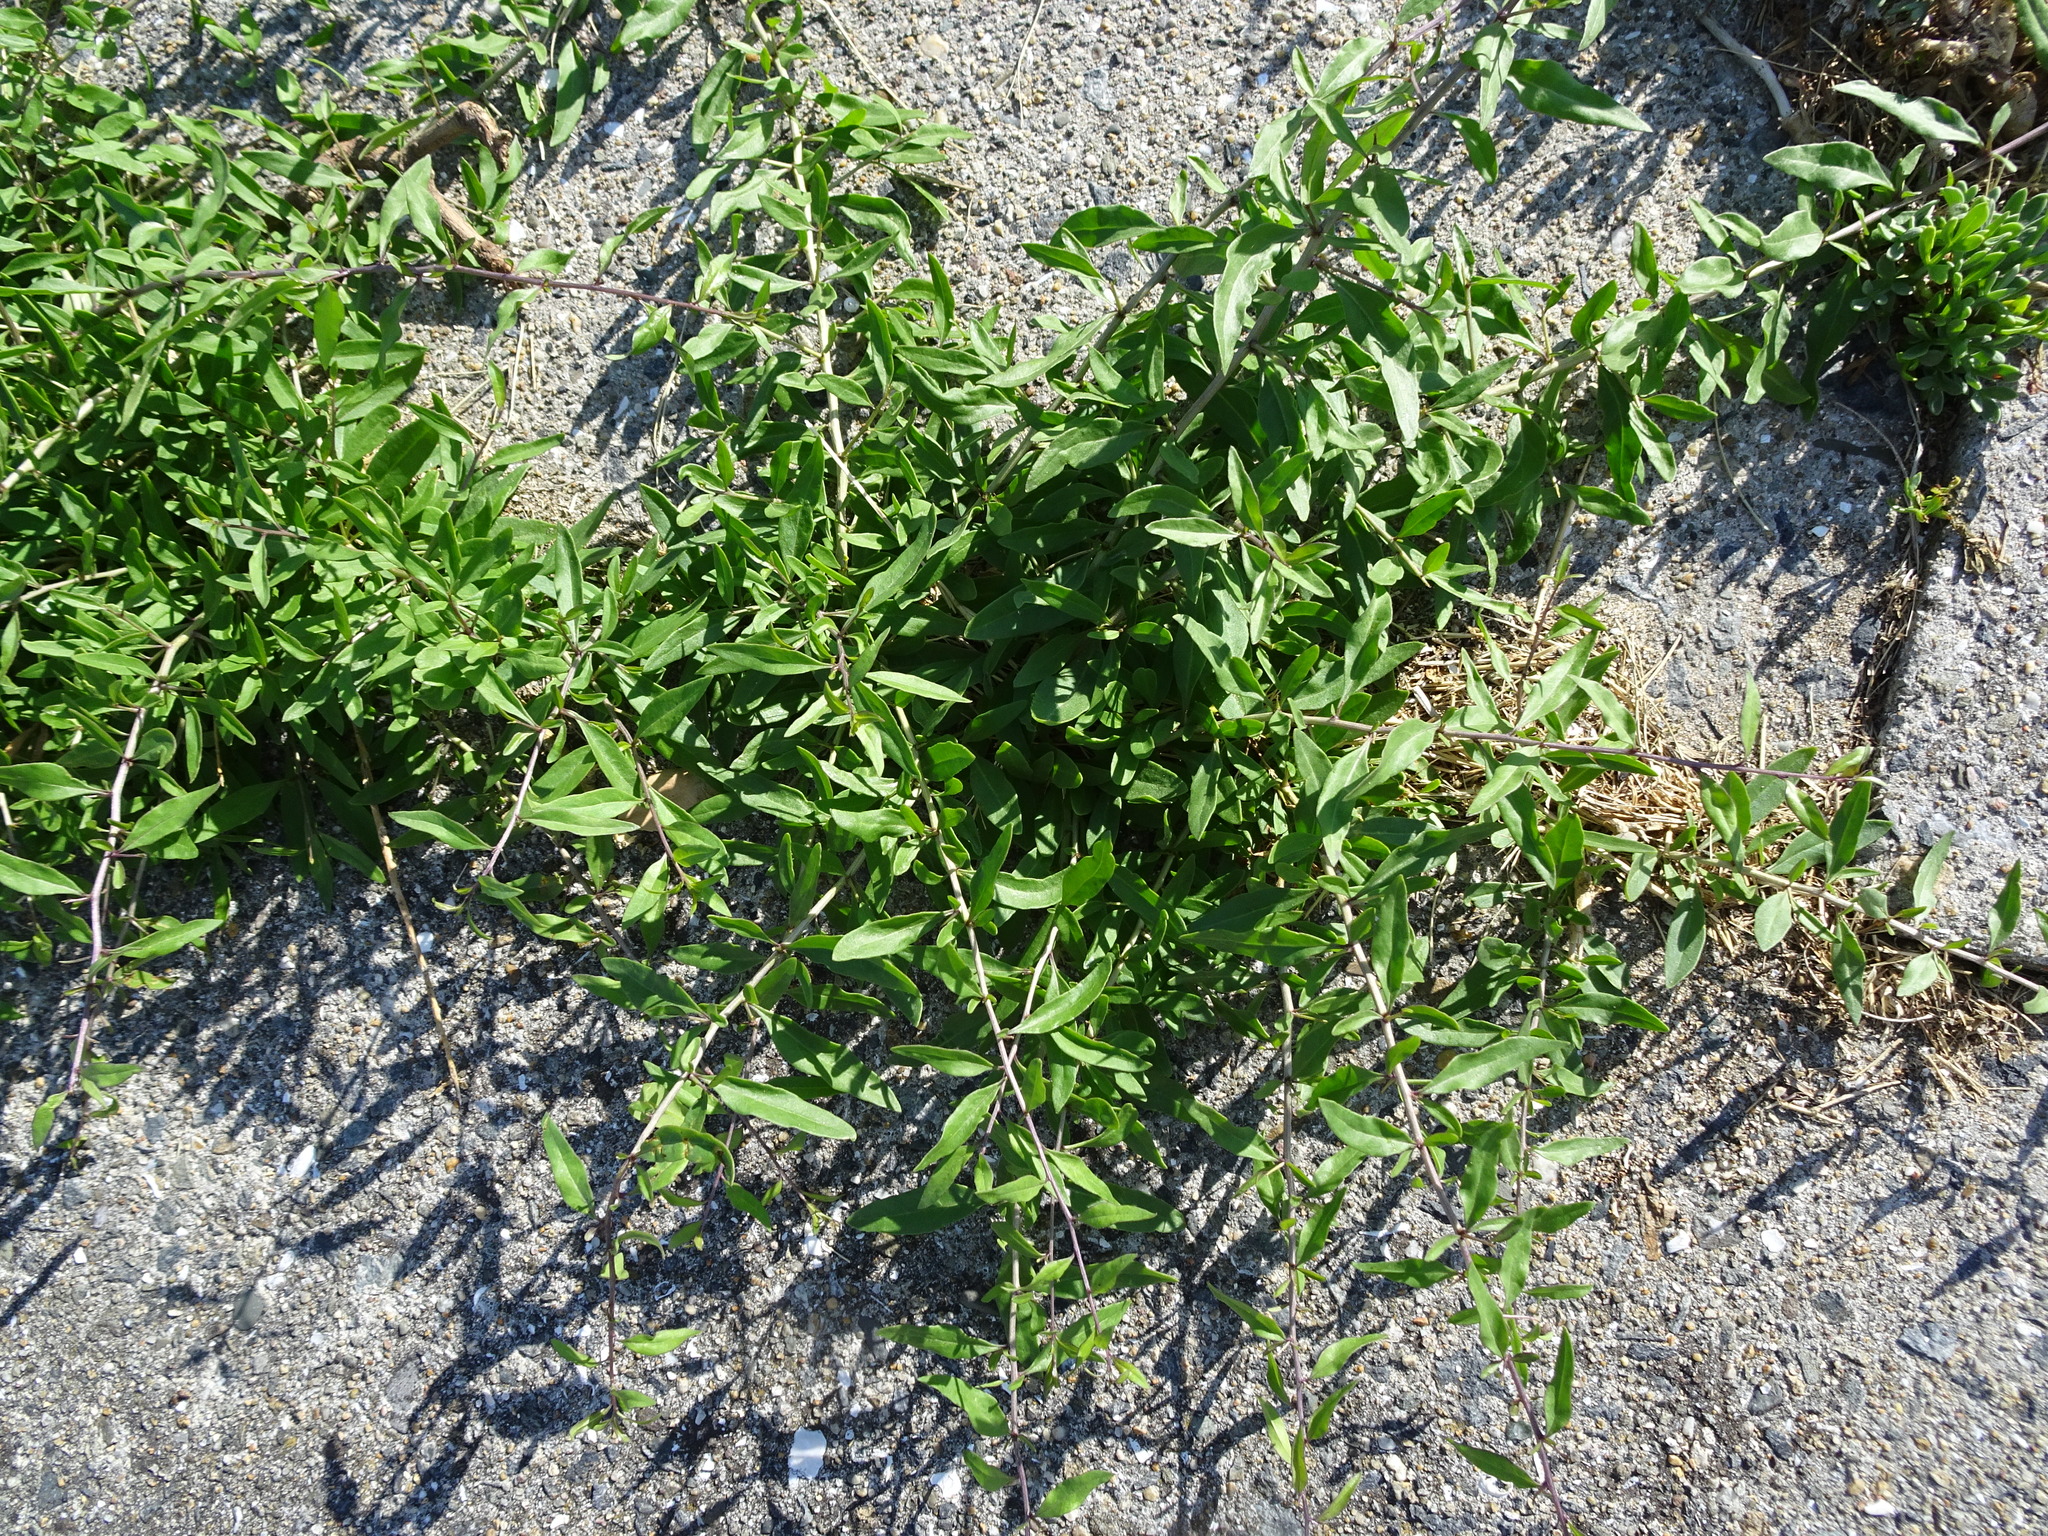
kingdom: Plantae
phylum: Tracheophyta
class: Magnoliopsida
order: Solanales
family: Solanaceae
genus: Lycium
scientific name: Lycium barbarum
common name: Duke of argyll's teaplant
